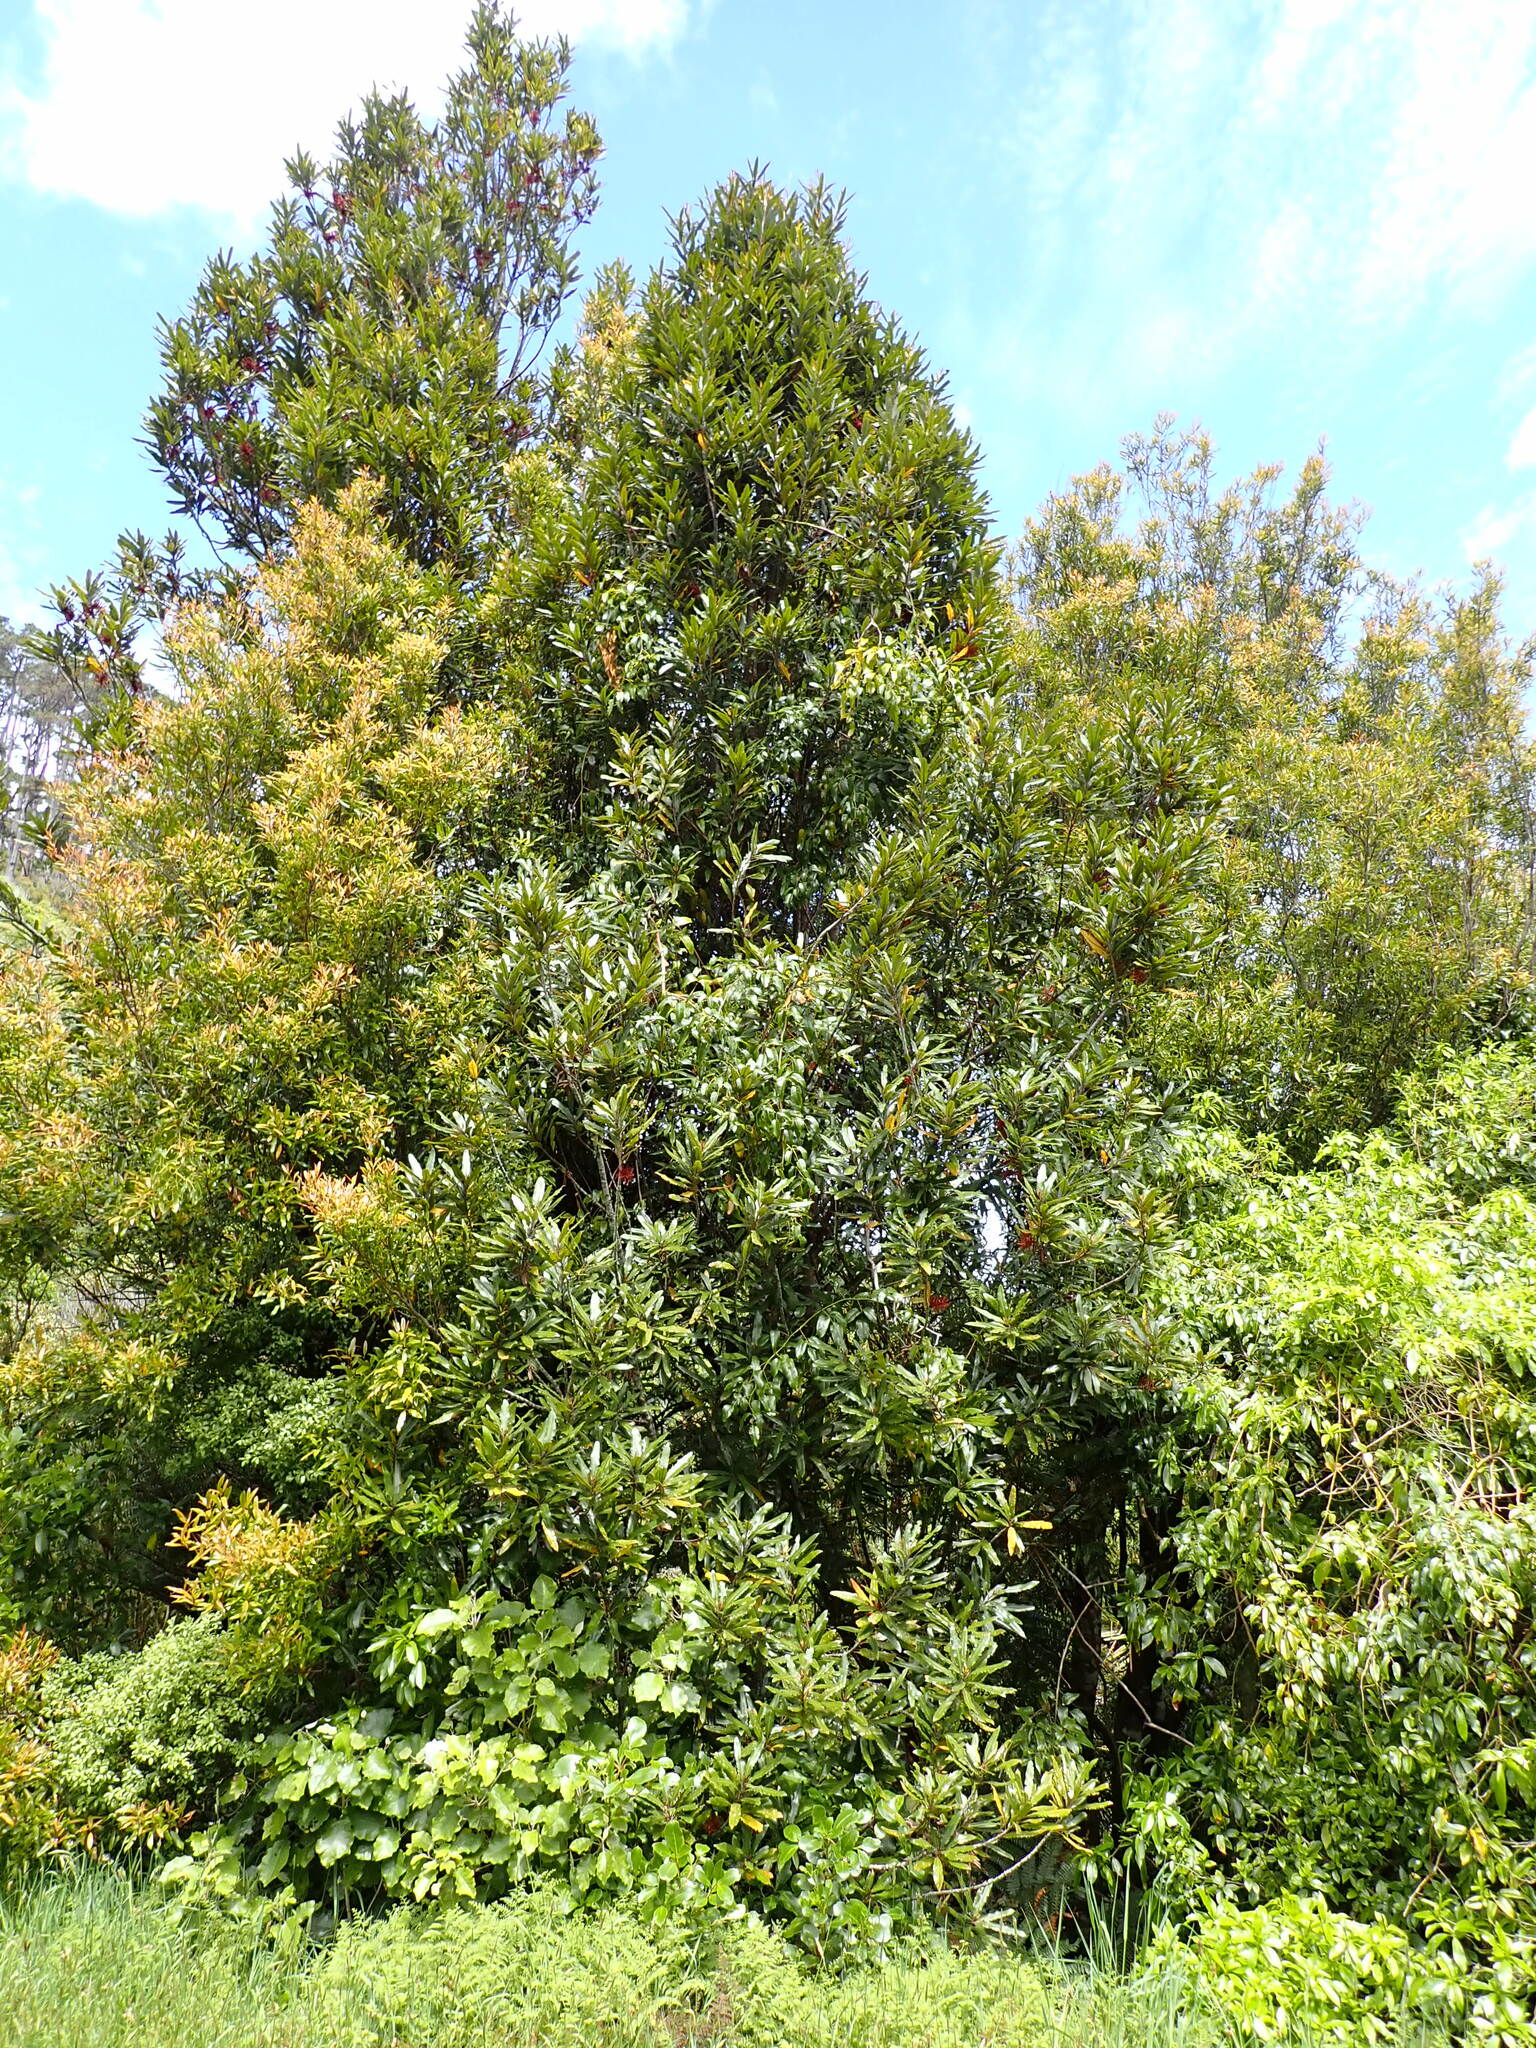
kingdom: Plantae
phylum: Tracheophyta
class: Magnoliopsida
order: Proteales
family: Proteaceae
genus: Knightia
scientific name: Knightia excelsa
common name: New zealand-honeysuckle
